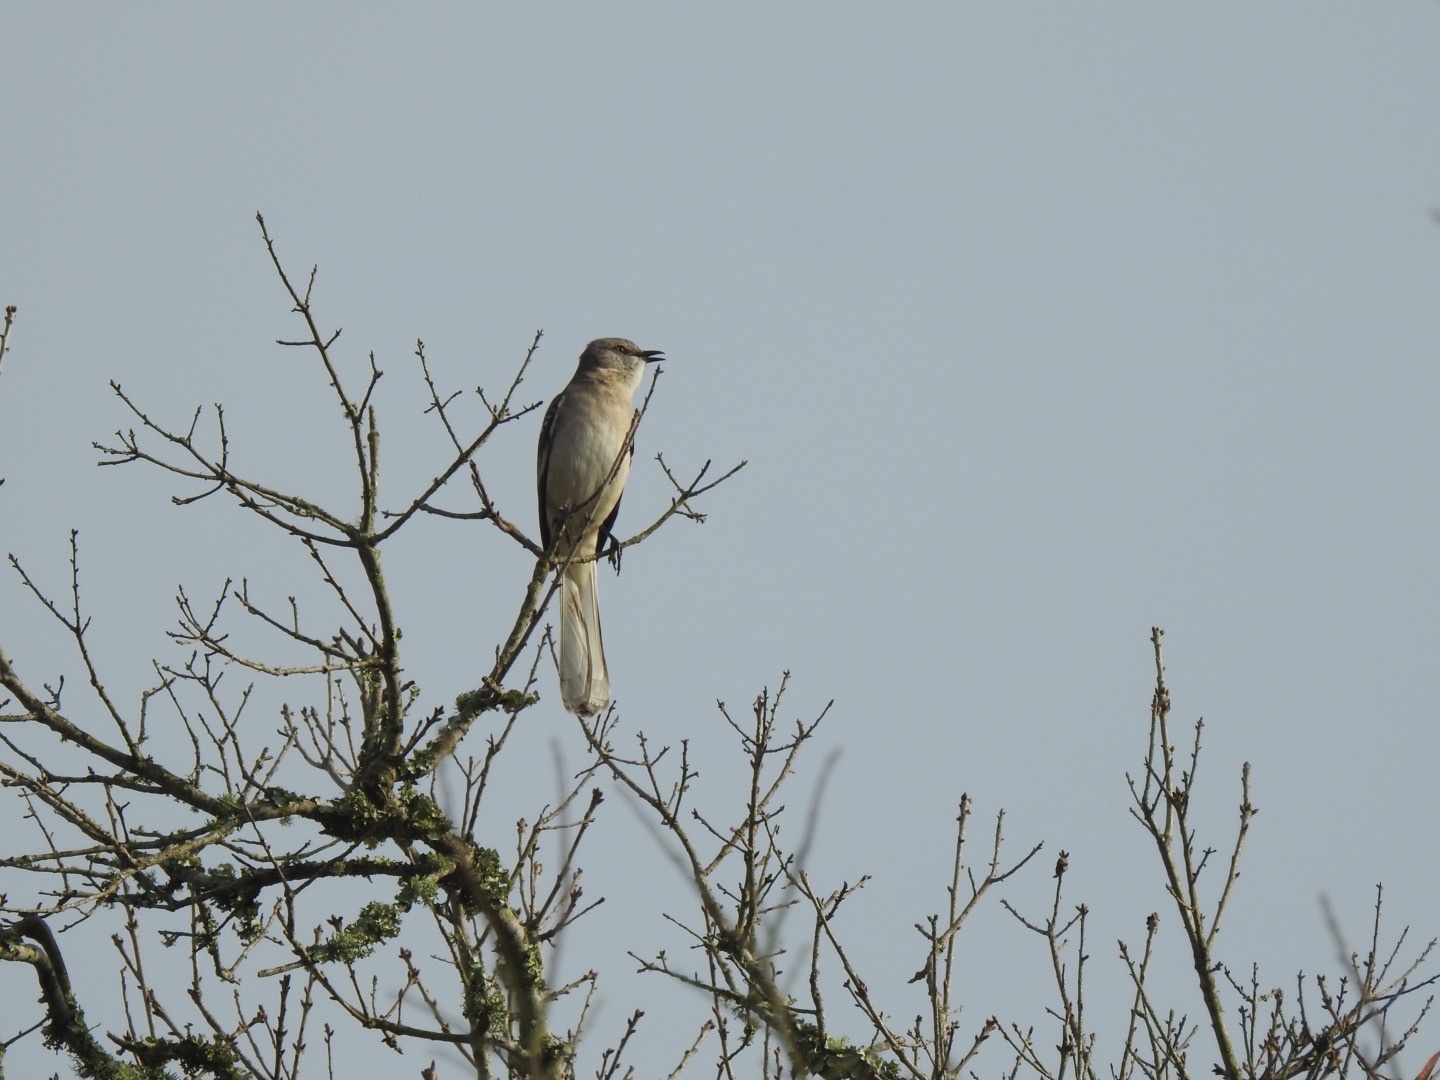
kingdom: Animalia
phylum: Chordata
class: Aves
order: Passeriformes
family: Mimidae
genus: Mimus
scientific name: Mimus polyglottos
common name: Northern mockingbird
